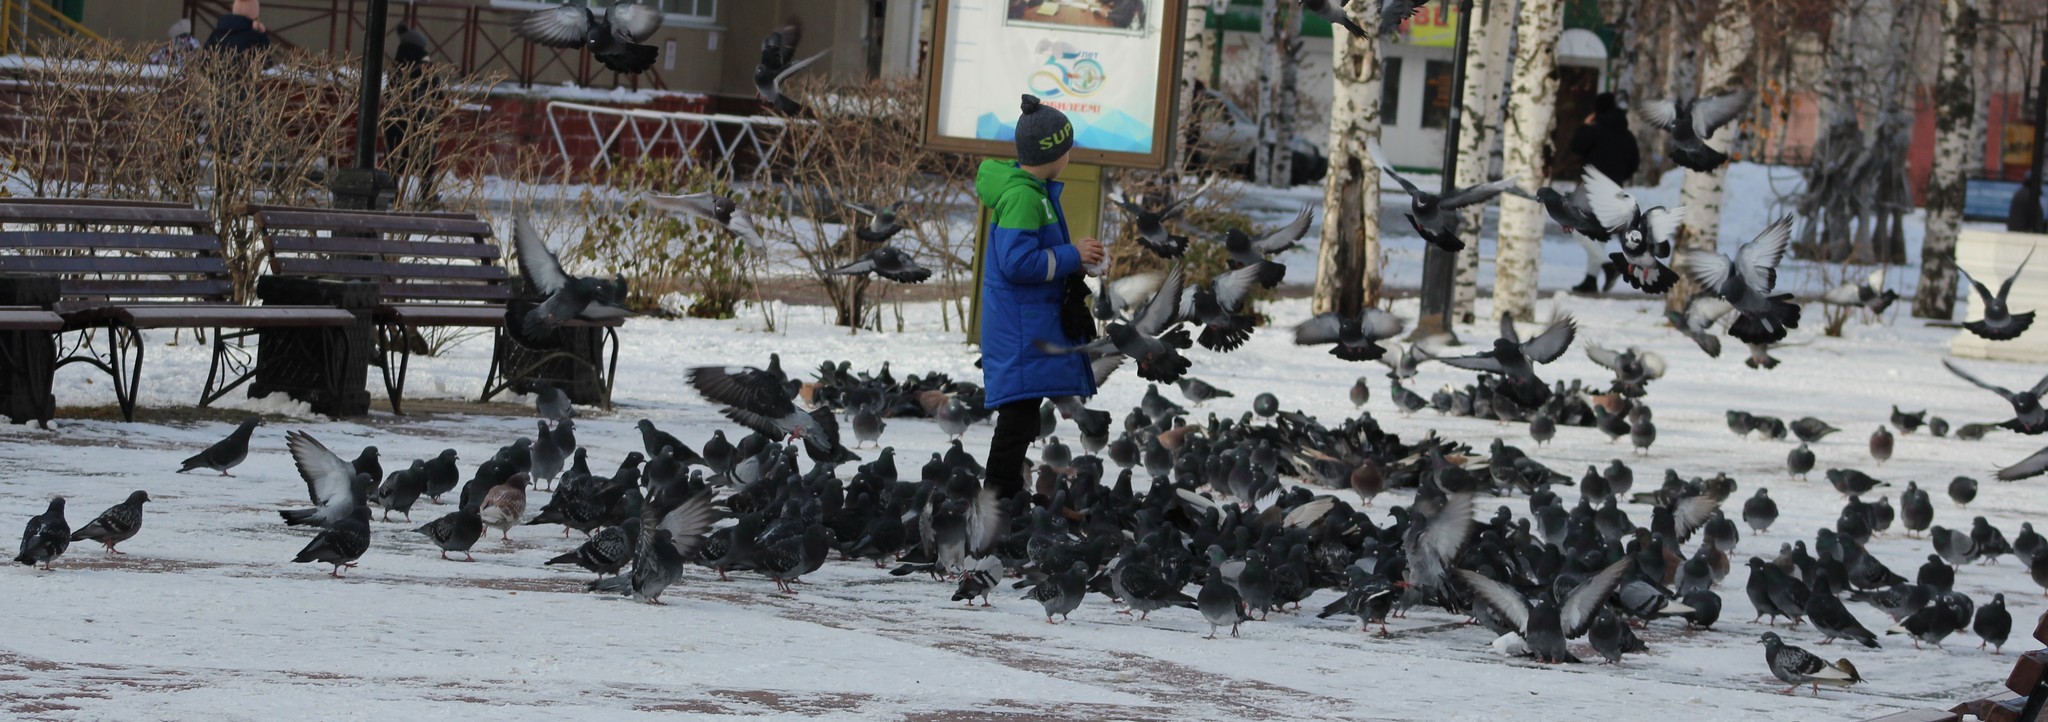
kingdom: Animalia
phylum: Chordata
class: Aves
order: Columbiformes
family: Columbidae
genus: Columba
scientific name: Columba livia
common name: Rock pigeon
